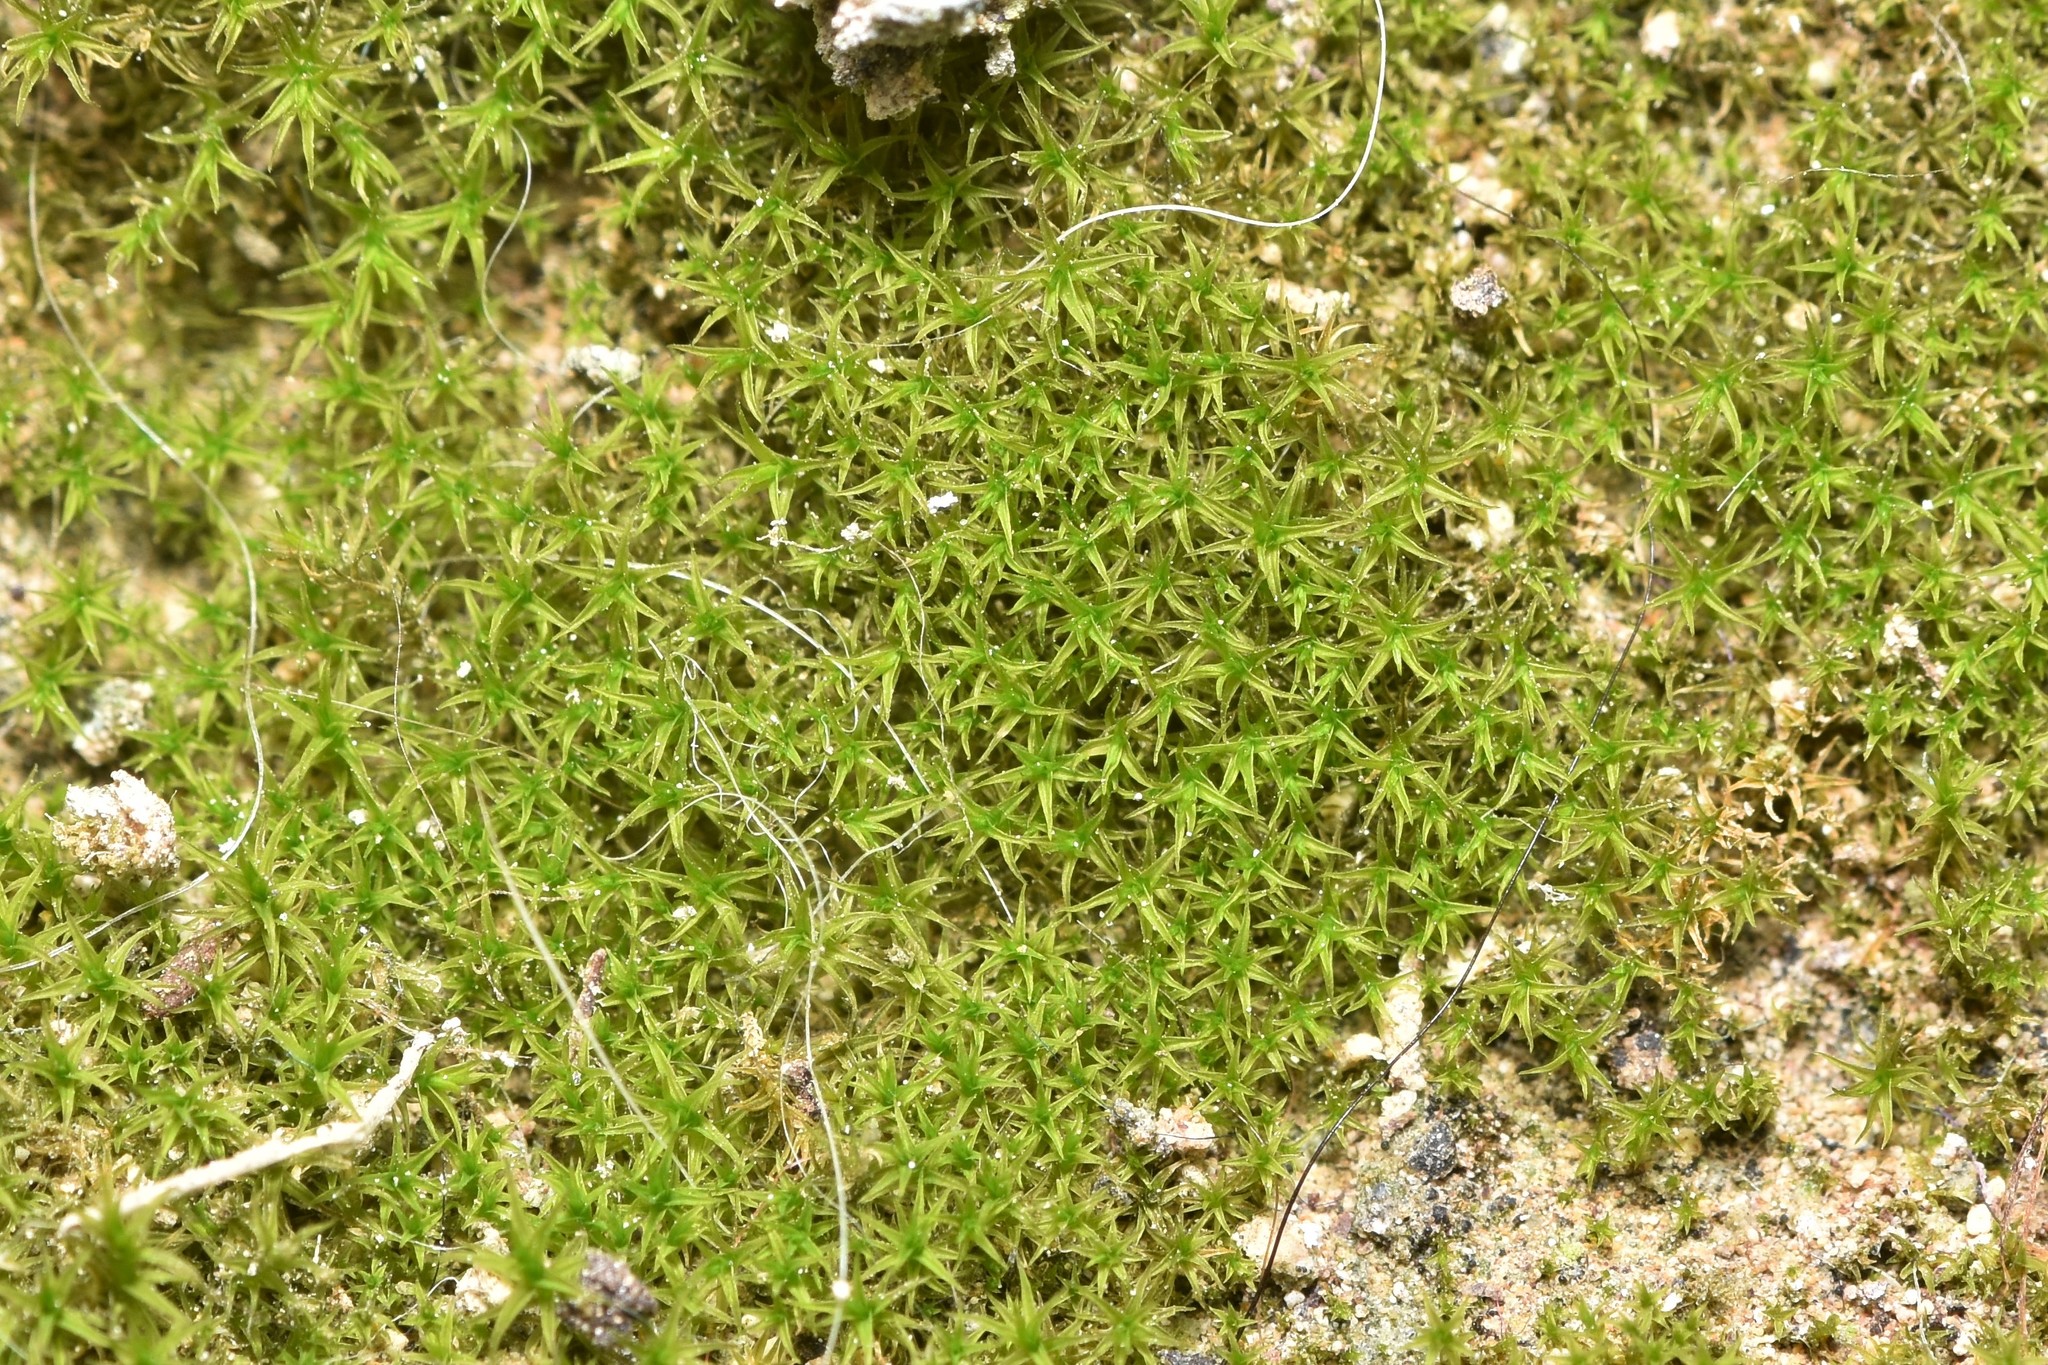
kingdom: Plantae
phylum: Bryophyta
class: Bryopsida
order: Pottiales
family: Pottiaceae
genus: Hymenostylium
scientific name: Hymenostylium recurvirostrum
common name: Hook-beak tufa-moss
